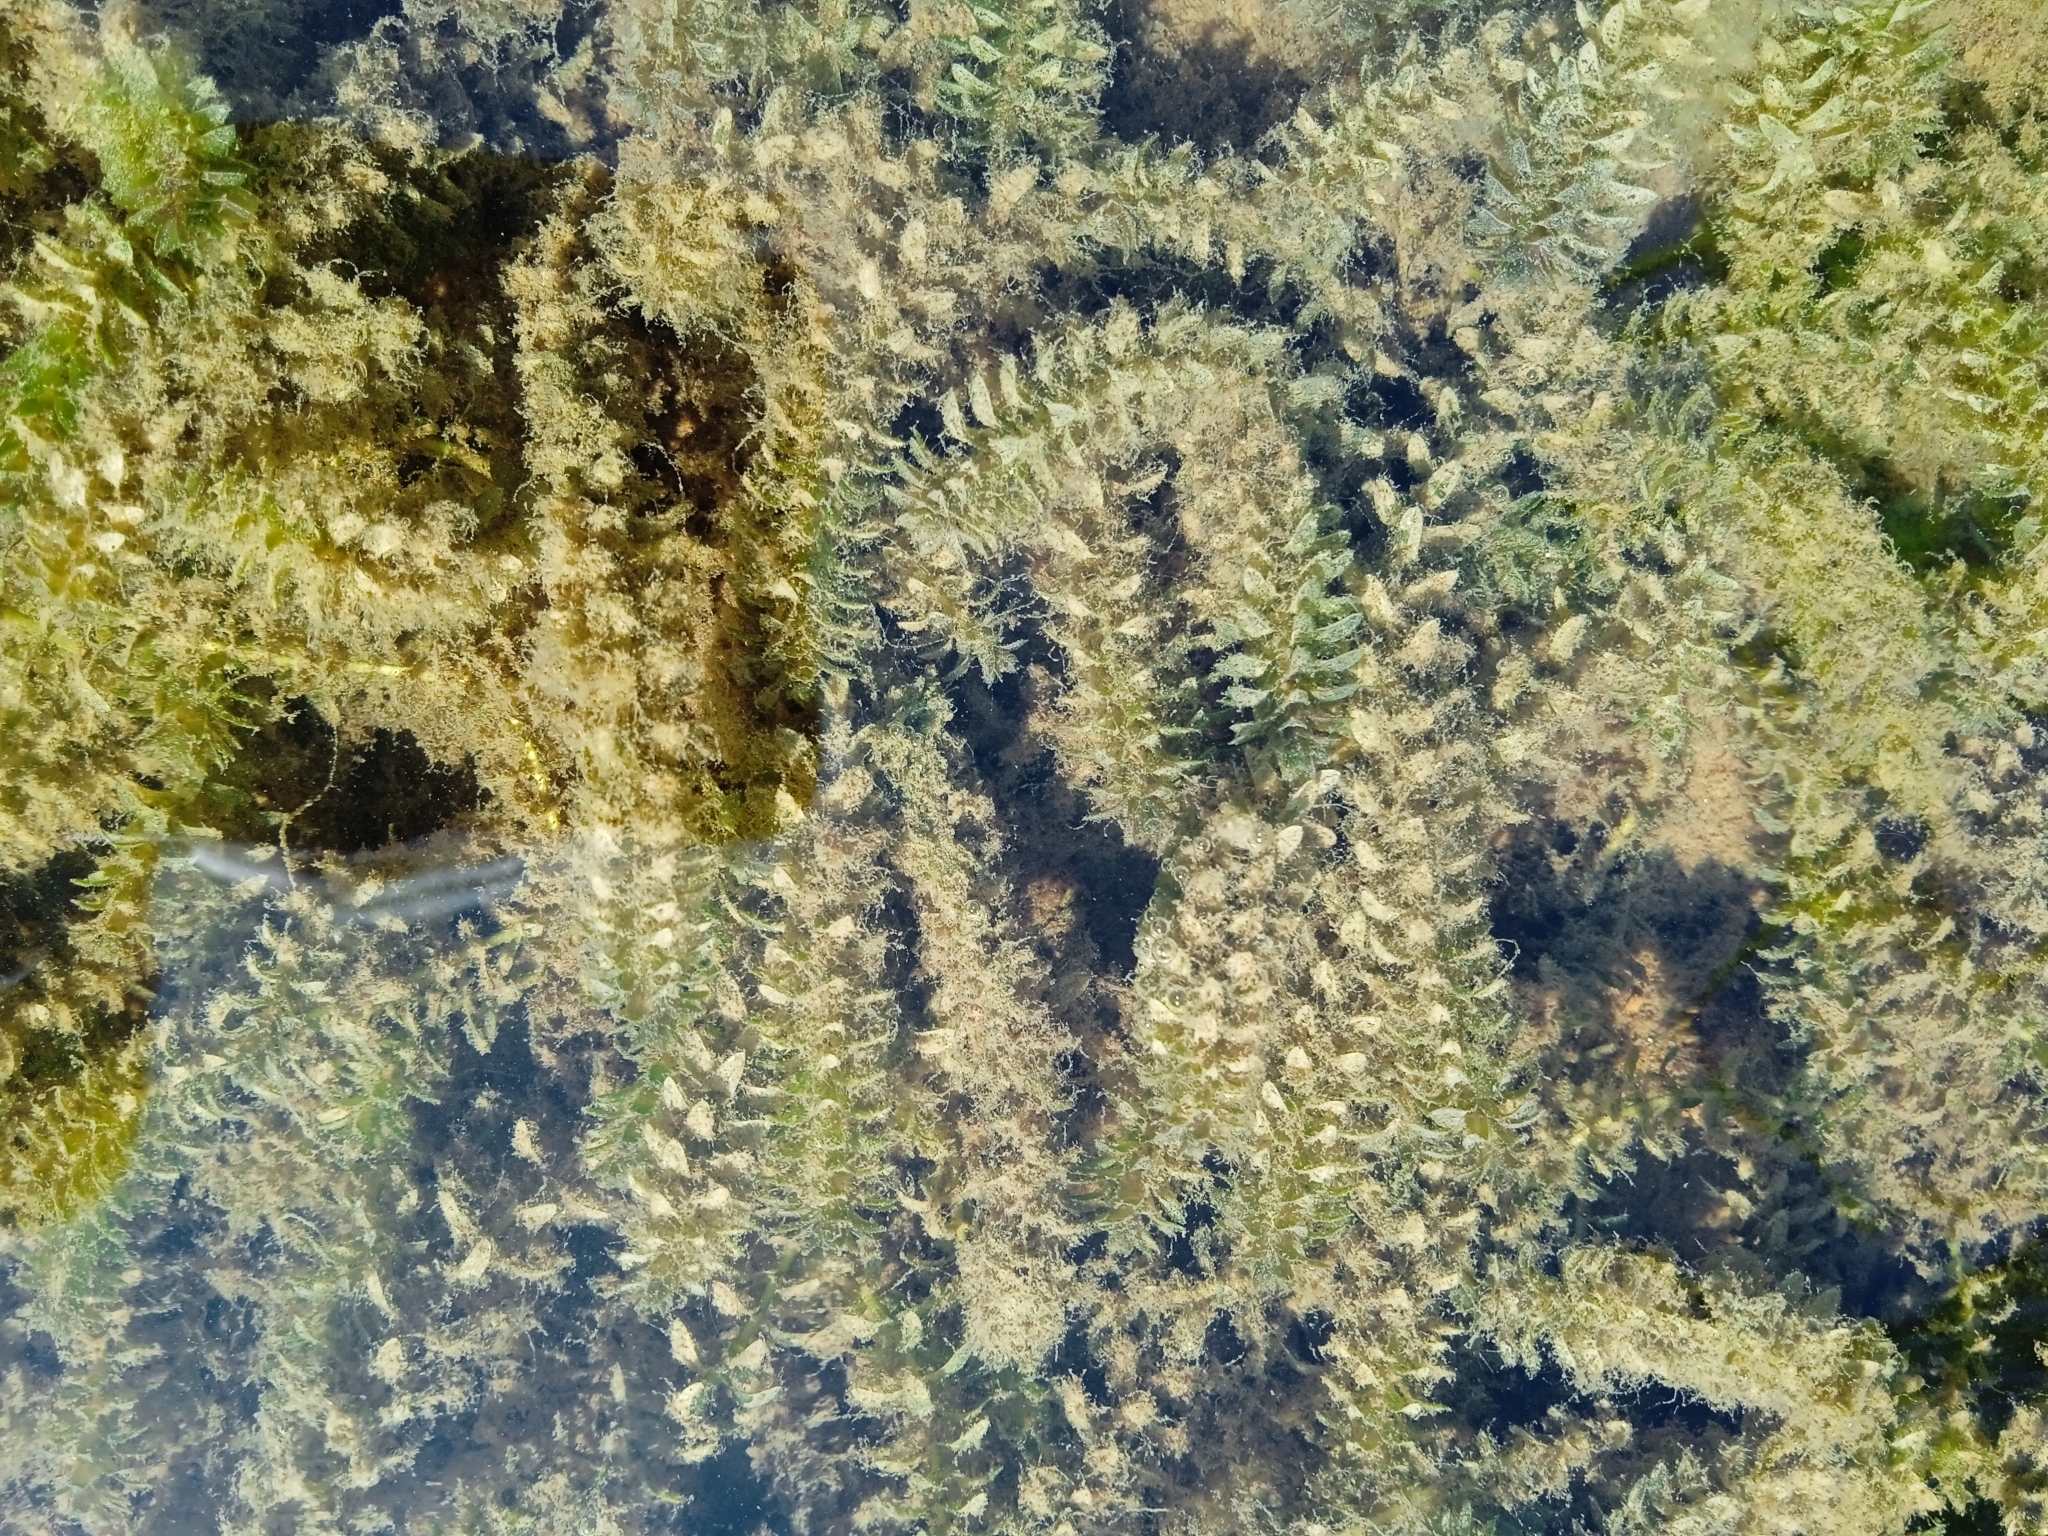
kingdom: Plantae
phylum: Tracheophyta
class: Liliopsida
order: Alismatales
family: Hydrocharitaceae
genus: Elodea
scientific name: Elodea canadensis
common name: Canadian waterweed
